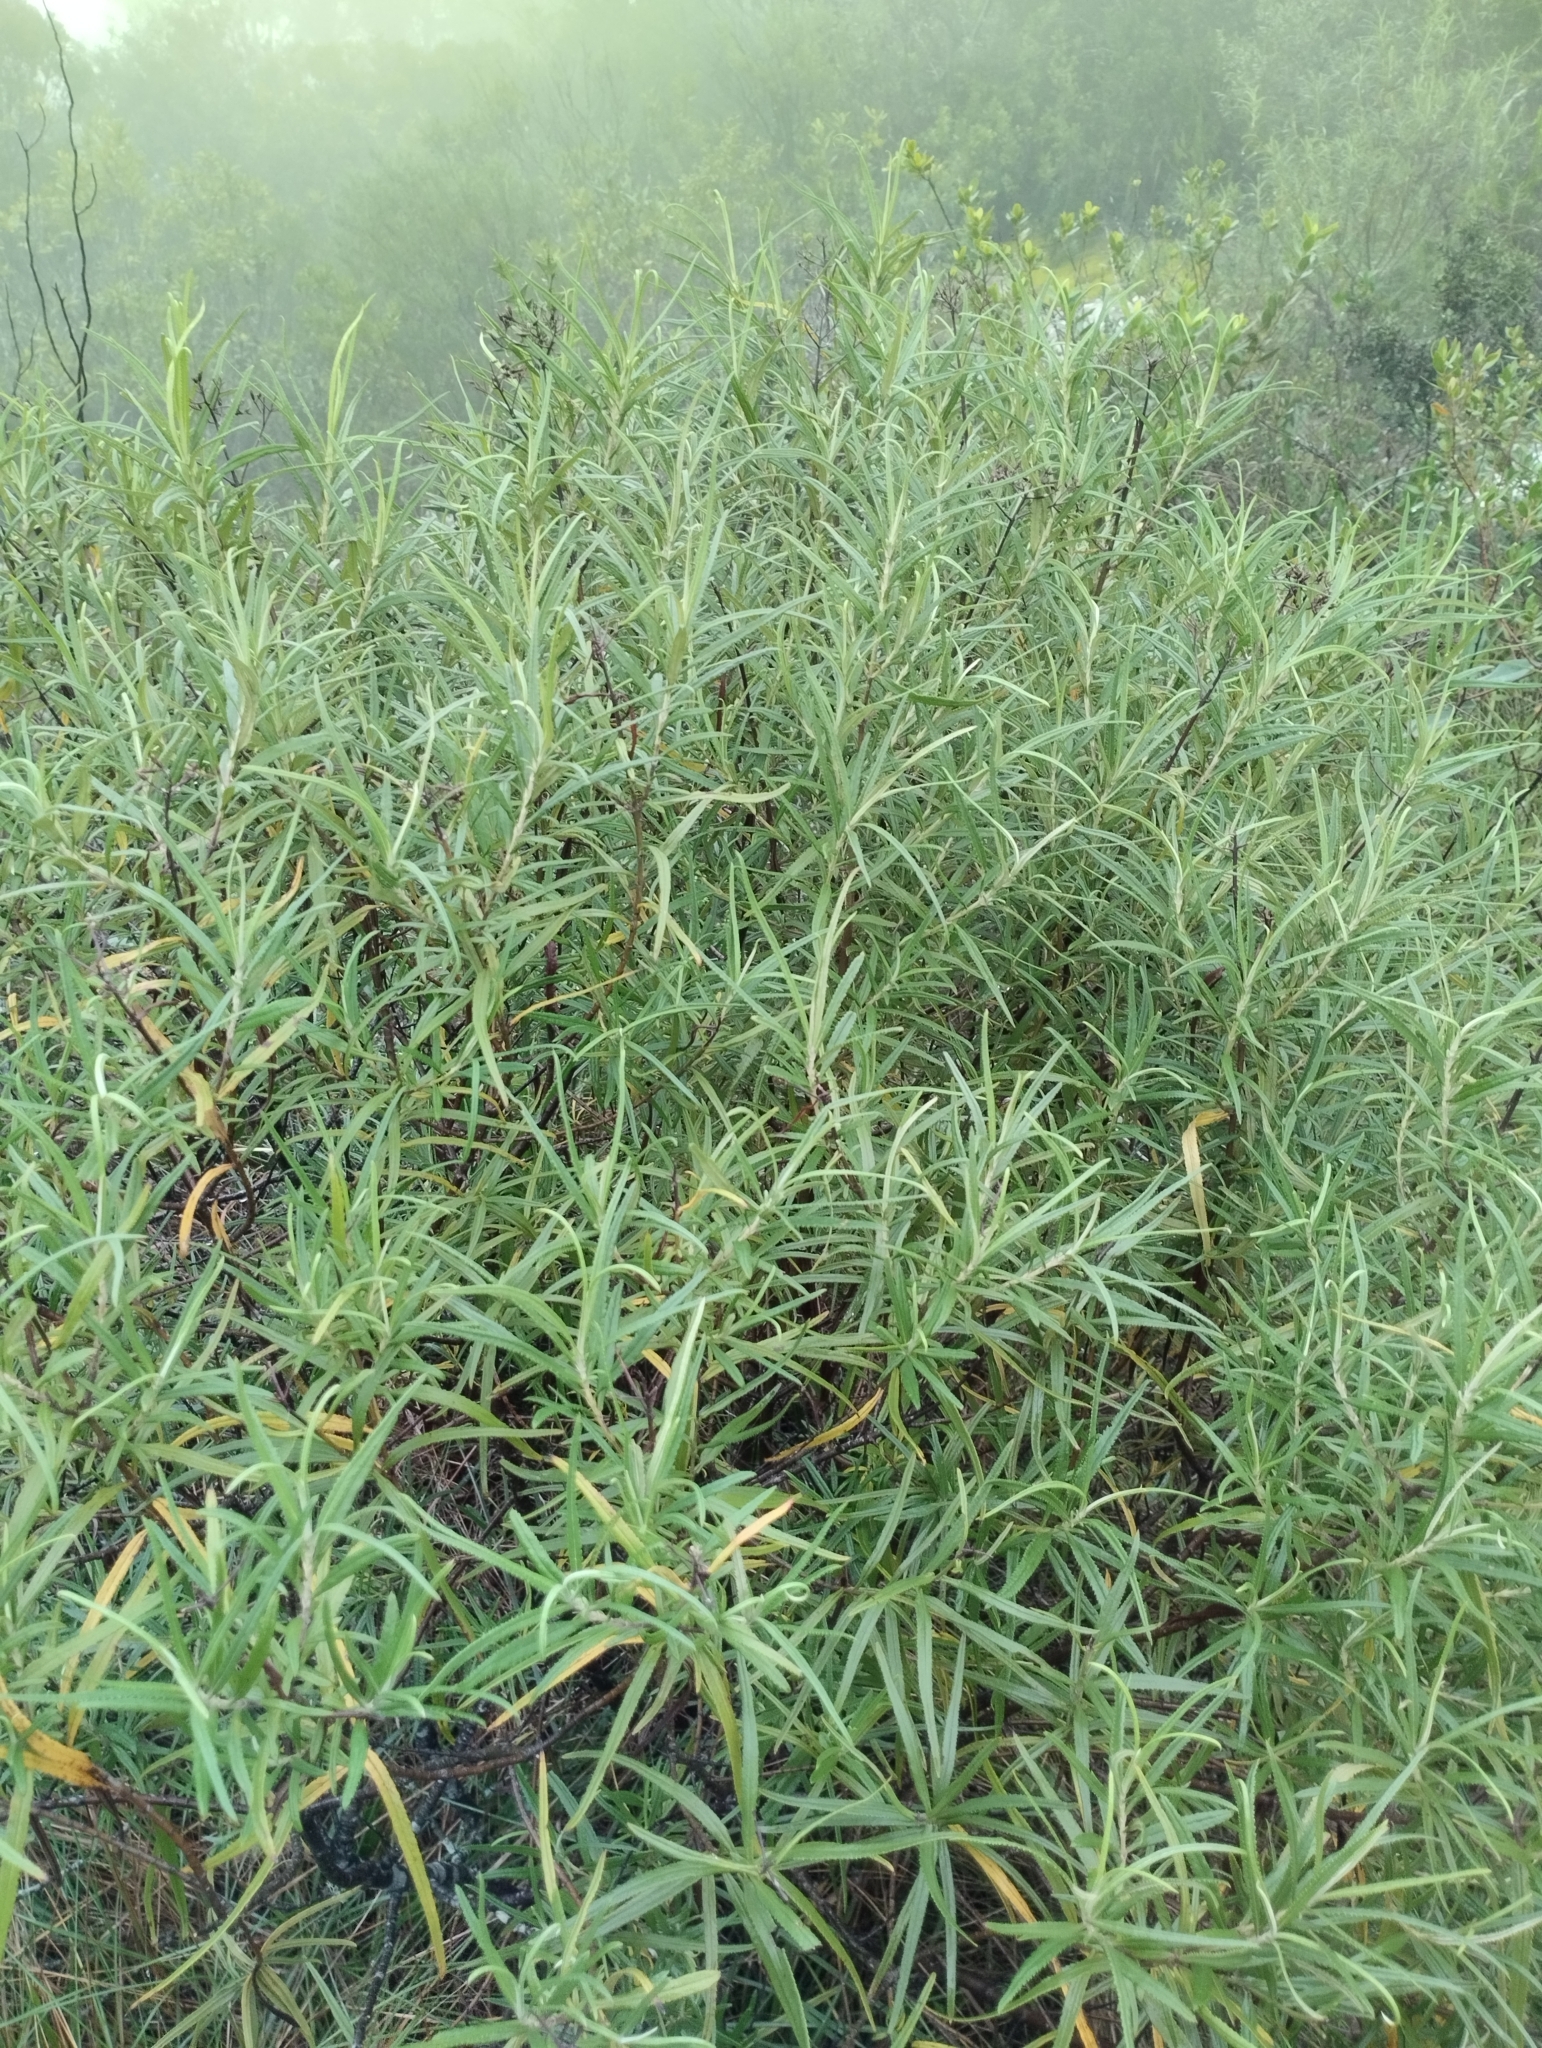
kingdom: Plantae
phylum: Tracheophyta
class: Magnoliopsida
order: Asterales
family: Asteraceae
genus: Grazielia
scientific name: Grazielia serrata
